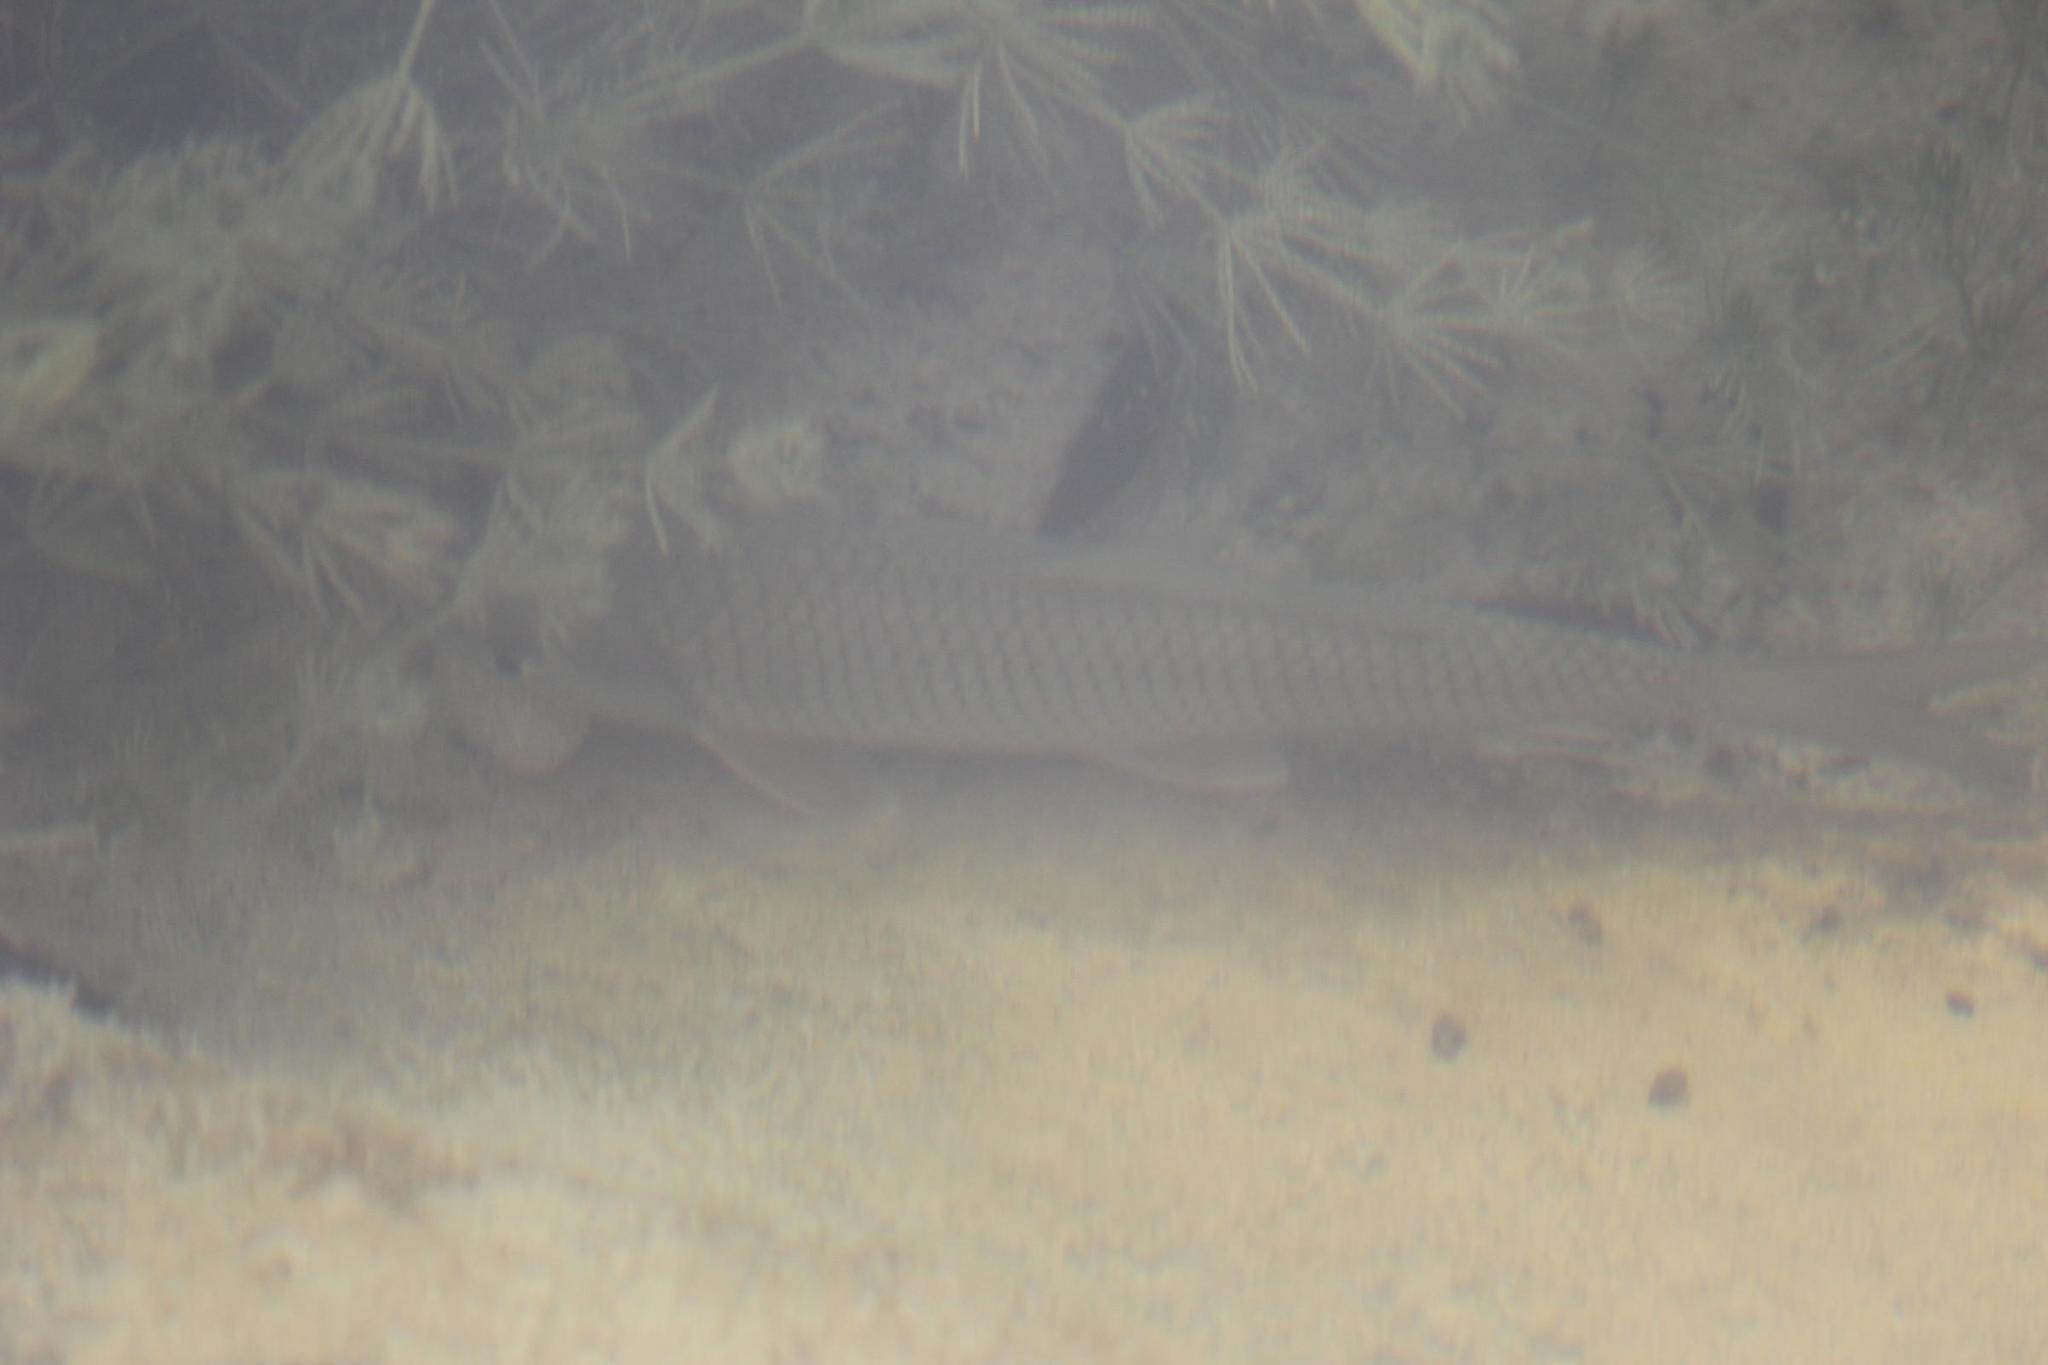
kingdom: Animalia
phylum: Chordata
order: Cypriniformes
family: Catostomidae
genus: Carpiodes
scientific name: Carpiodes carpio
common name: River carpsucker
